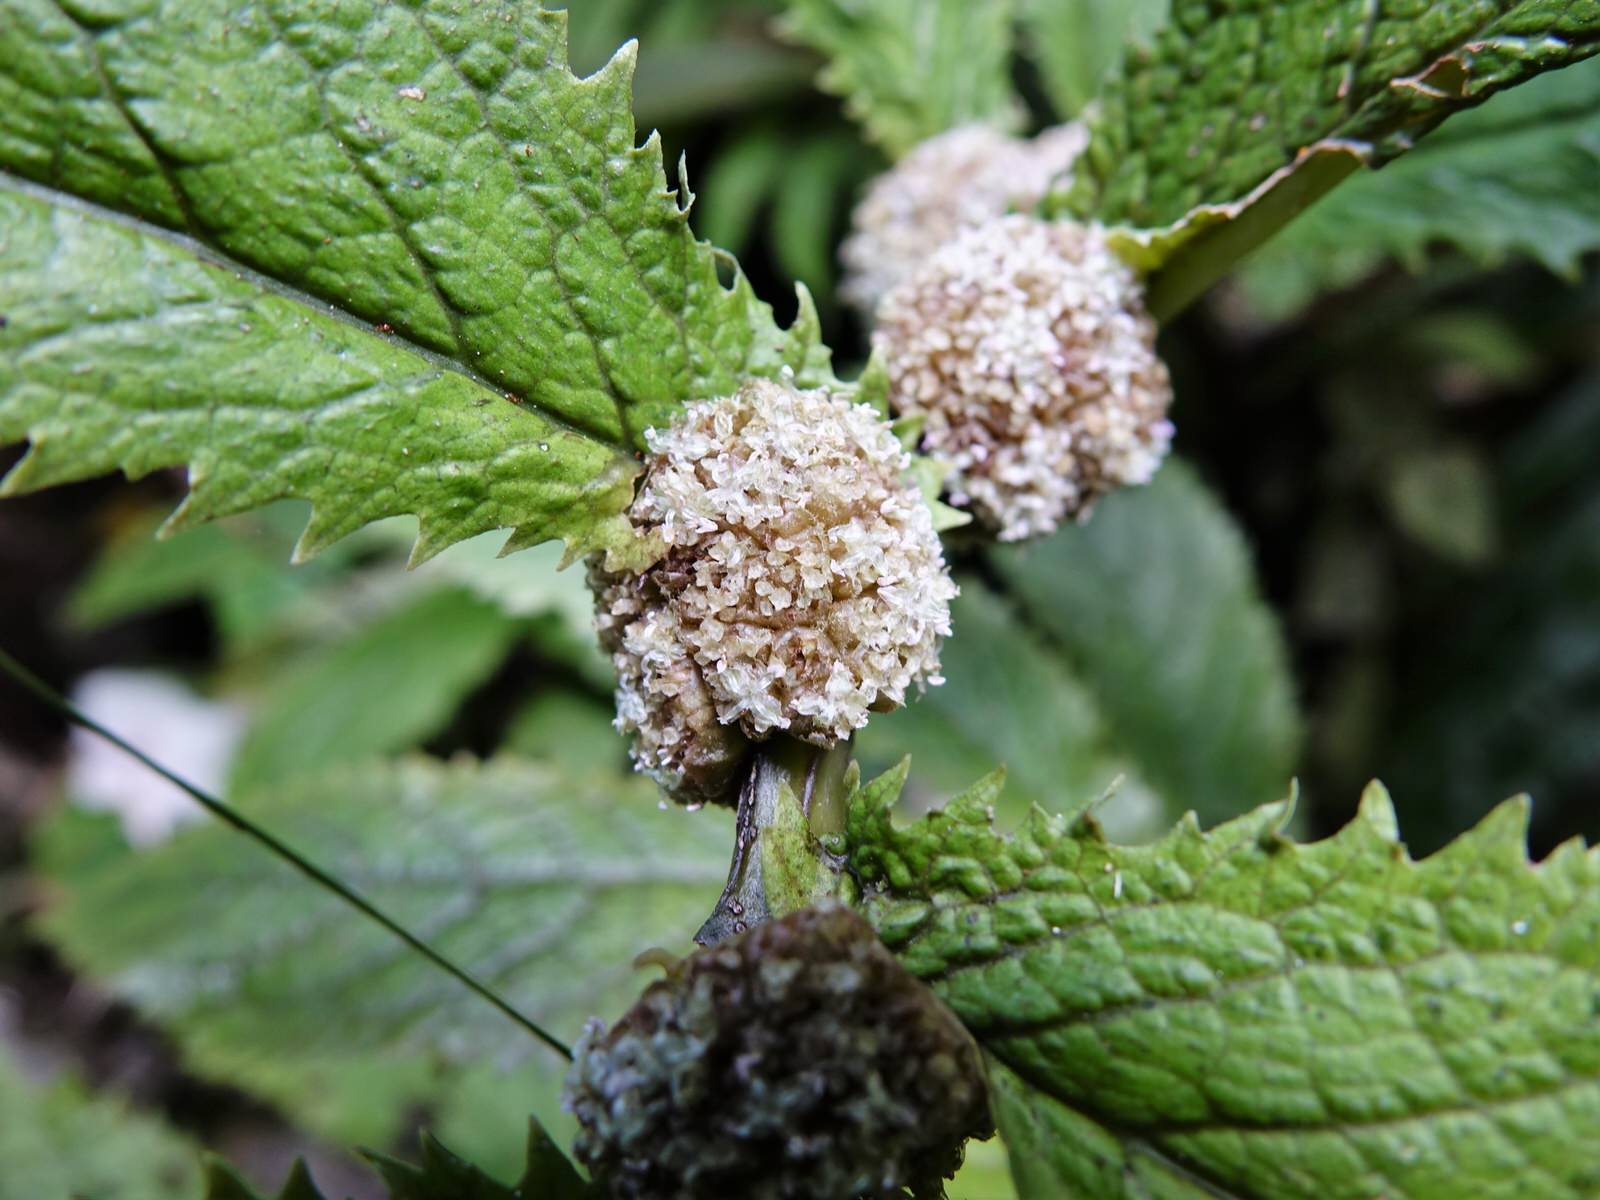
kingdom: Plantae
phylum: Tracheophyta
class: Magnoliopsida
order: Rosales
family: Urticaceae
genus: Elatostema
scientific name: Elatostema rugosum
